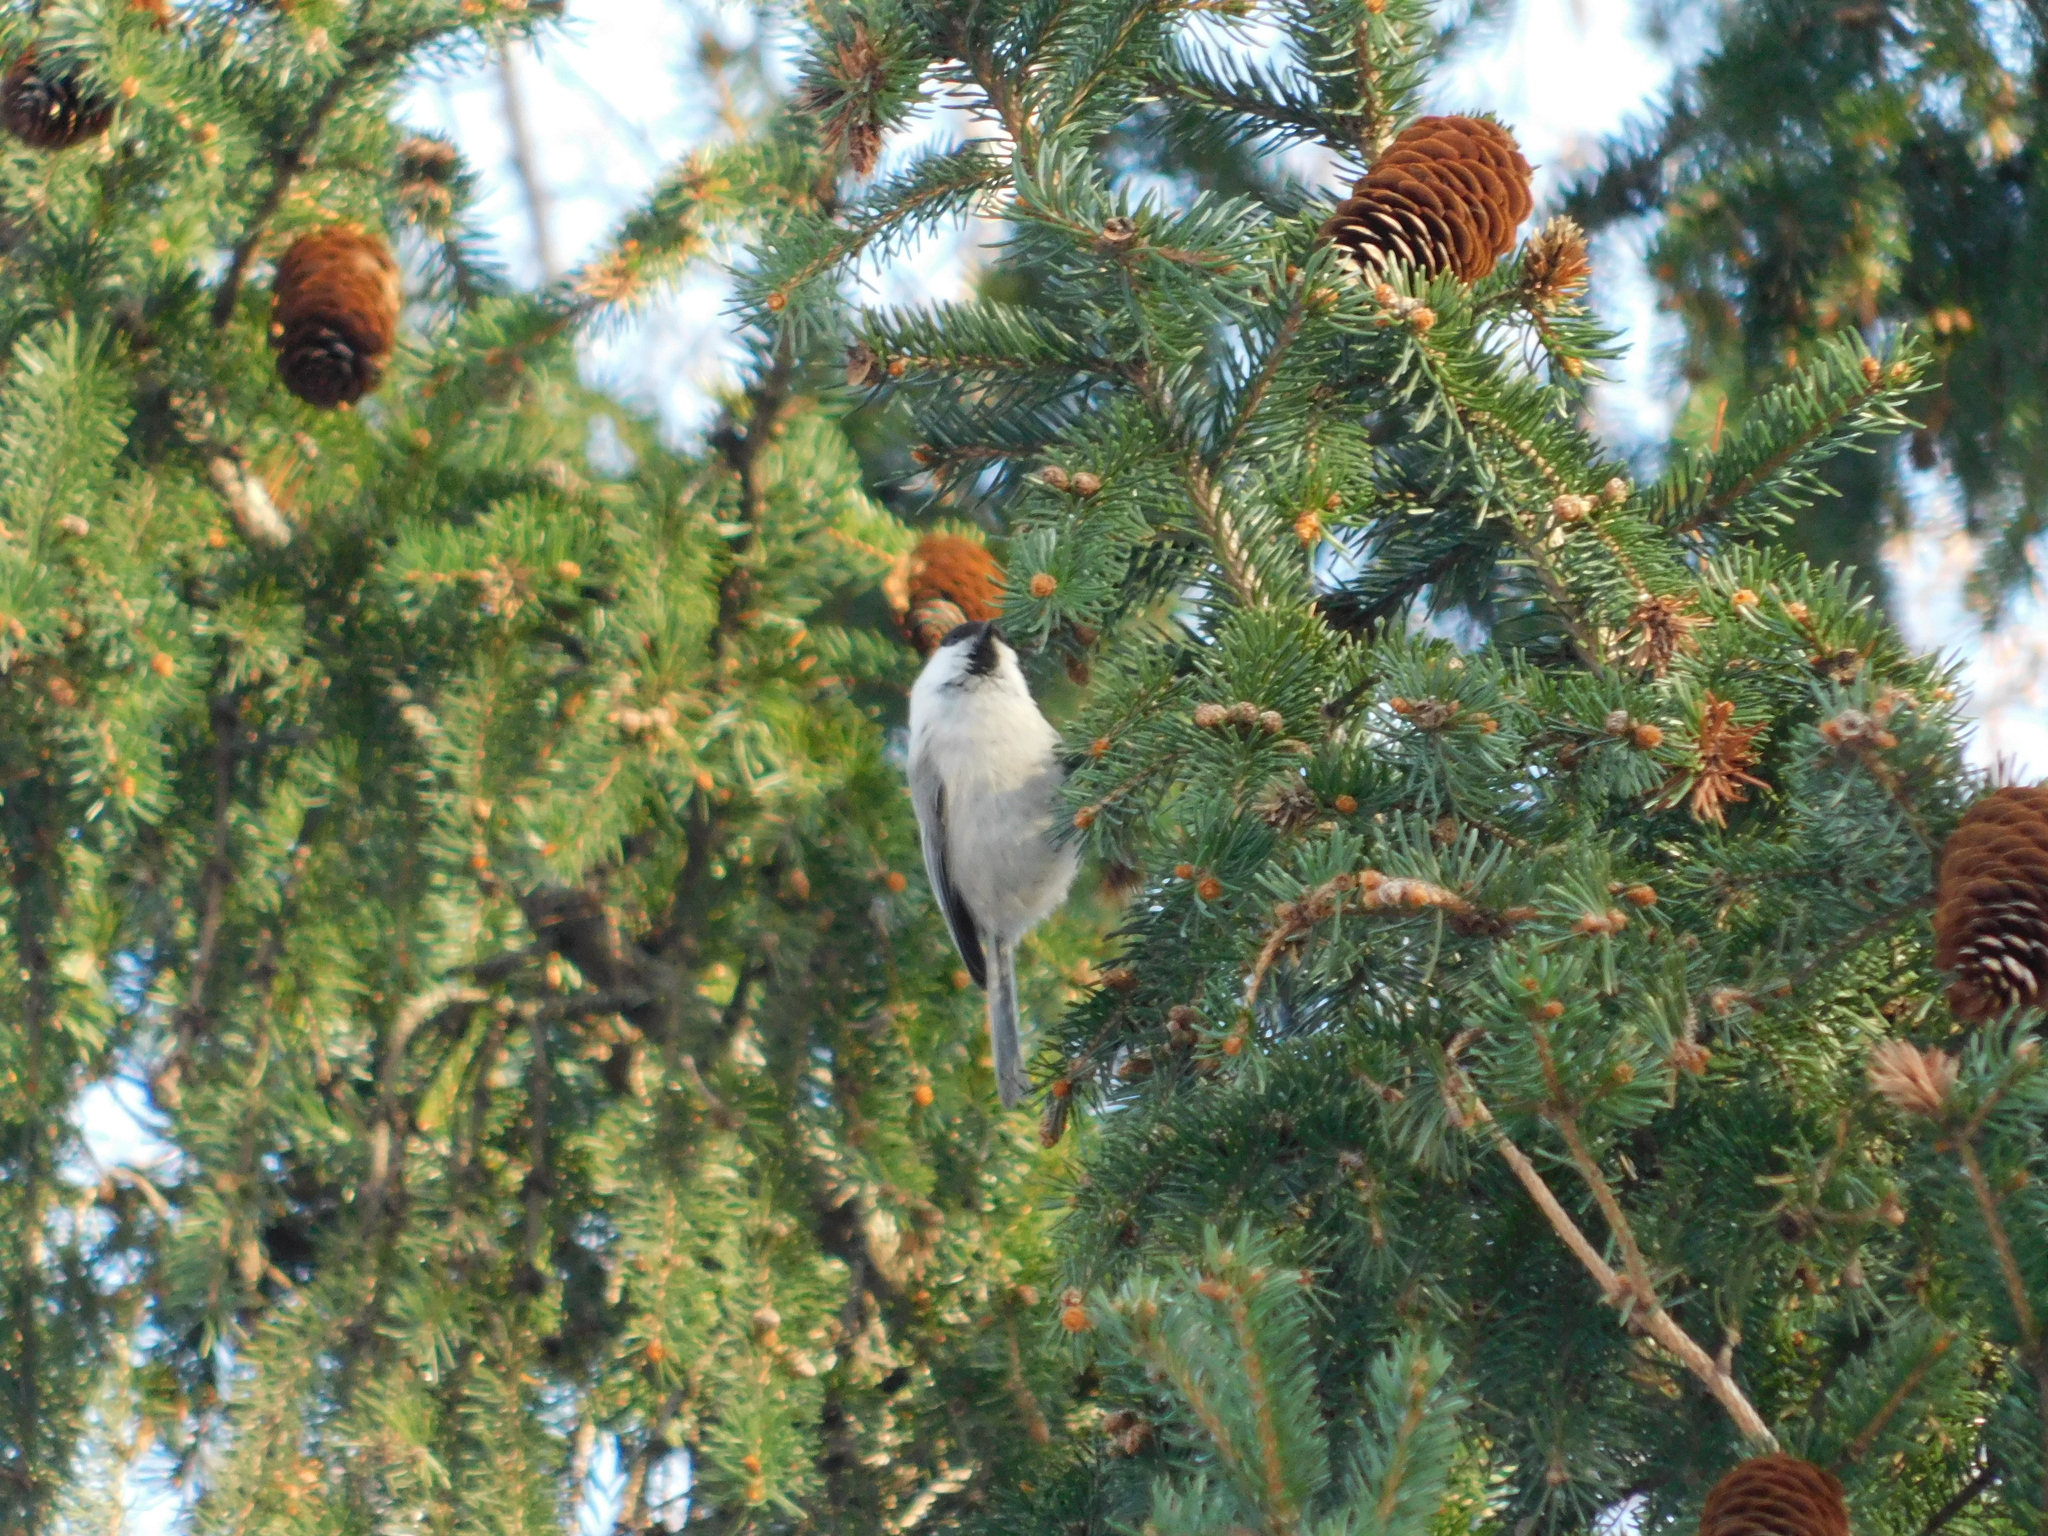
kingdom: Animalia
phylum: Chordata
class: Aves
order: Passeriformes
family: Paridae
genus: Poecile
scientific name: Poecile montanus
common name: Willow tit
